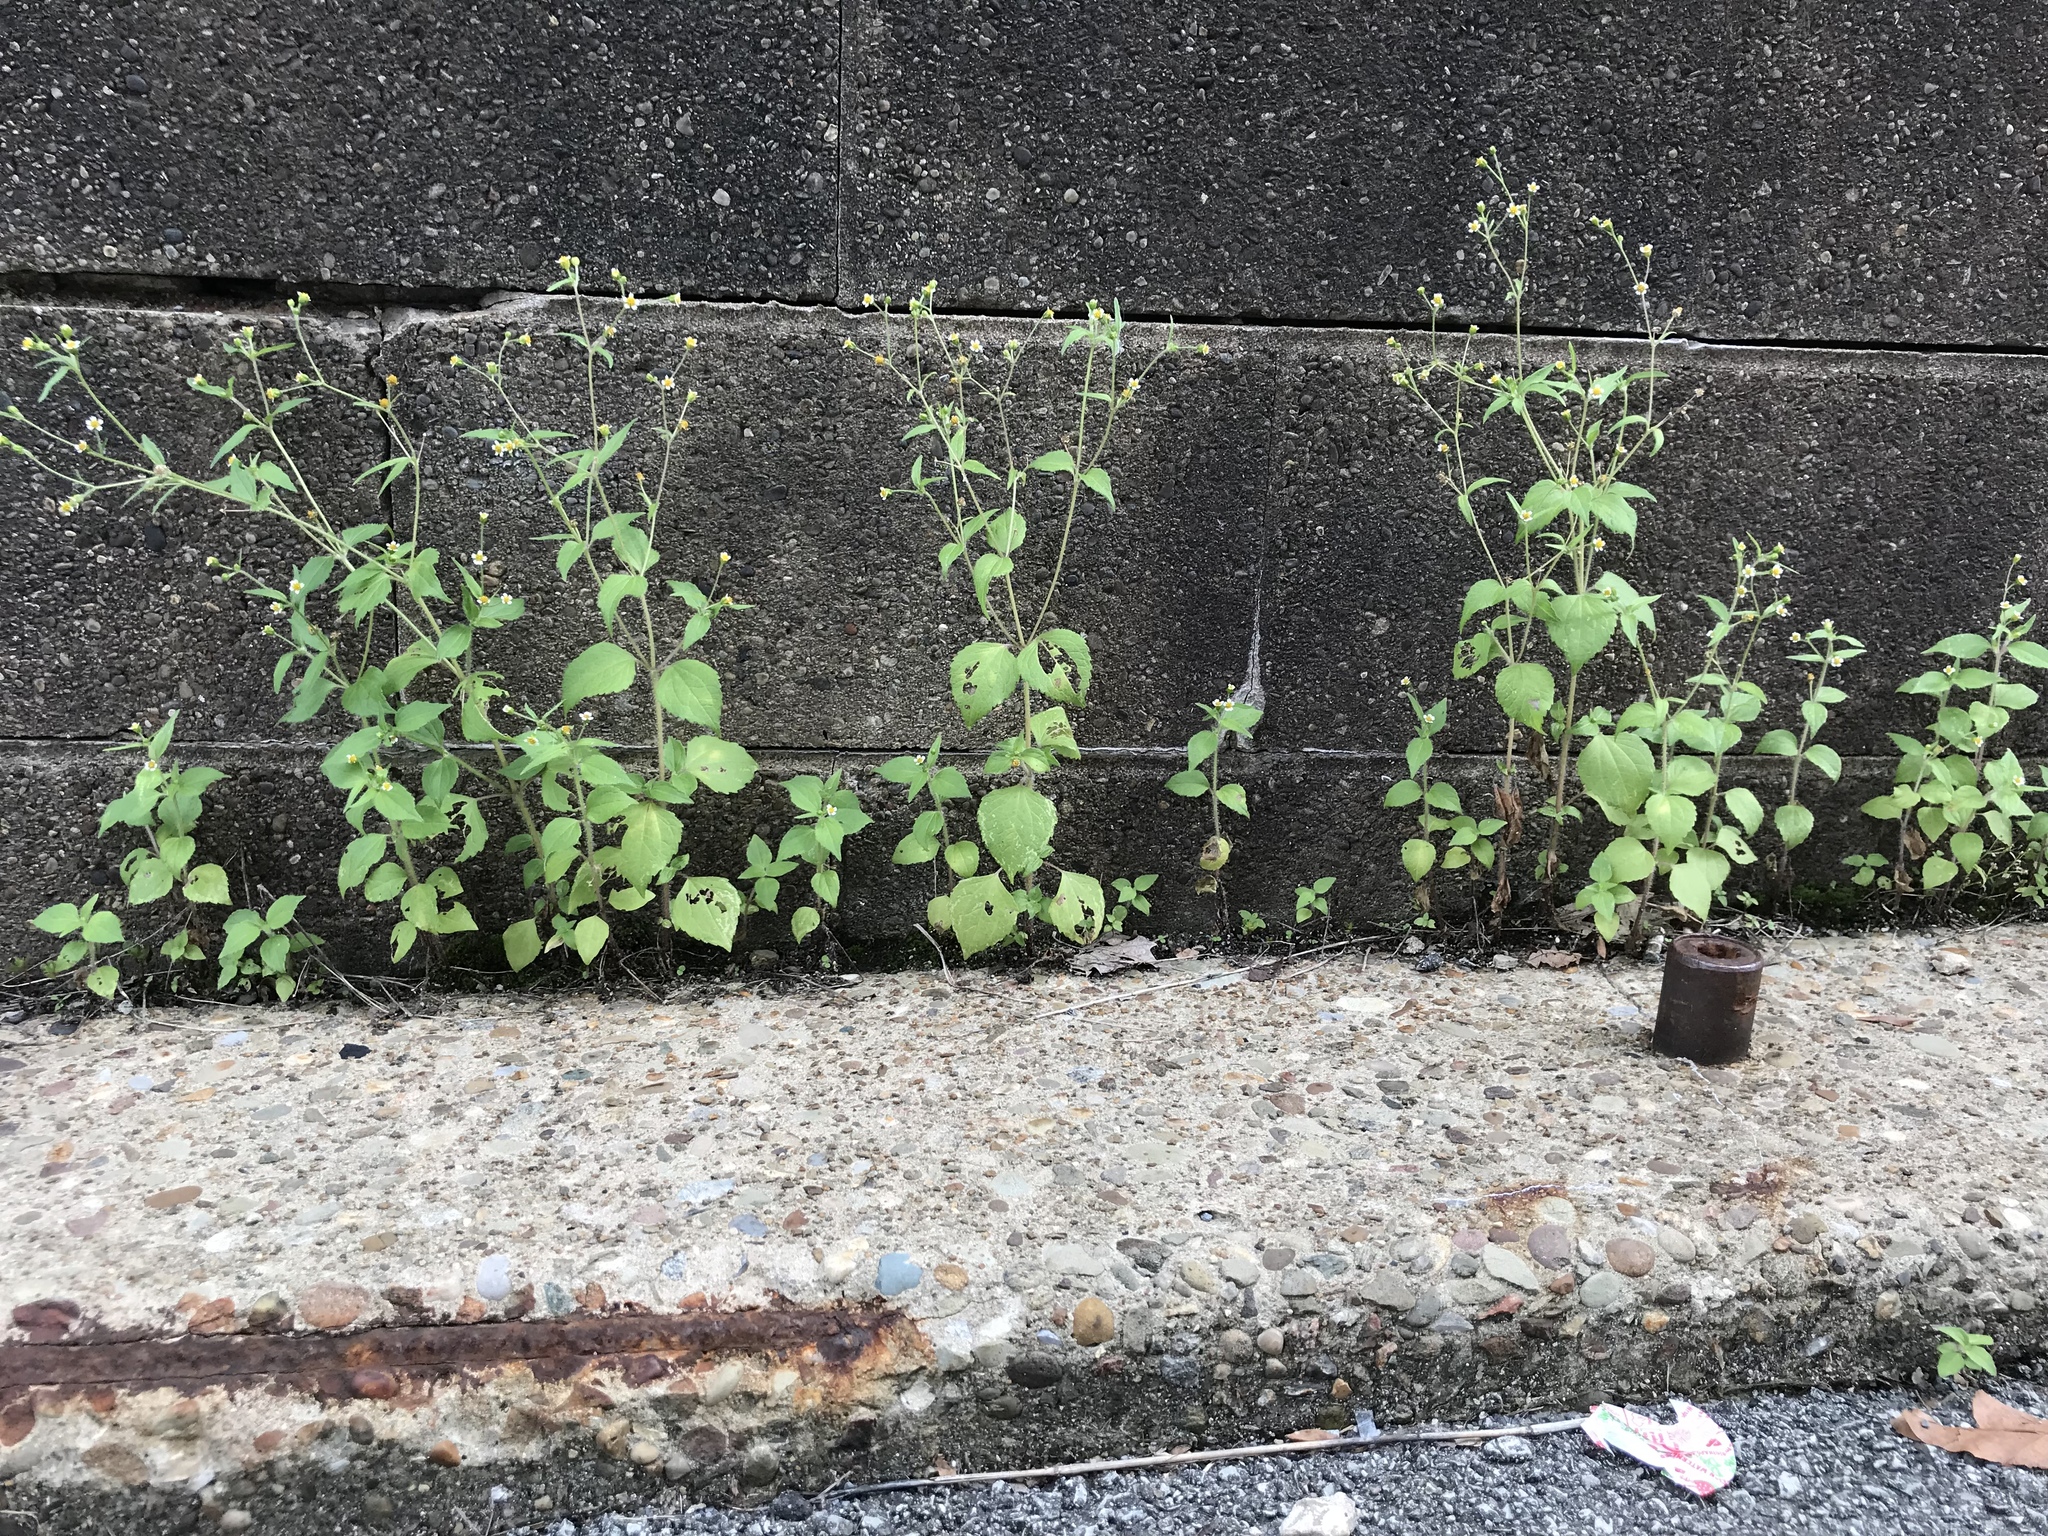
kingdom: Plantae
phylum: Tracheophyta
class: Magnoliopsida
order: Asterales
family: Asteraceae
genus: Galinsoga
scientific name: Galinsoga quadriradiata
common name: Shaggy soldier
